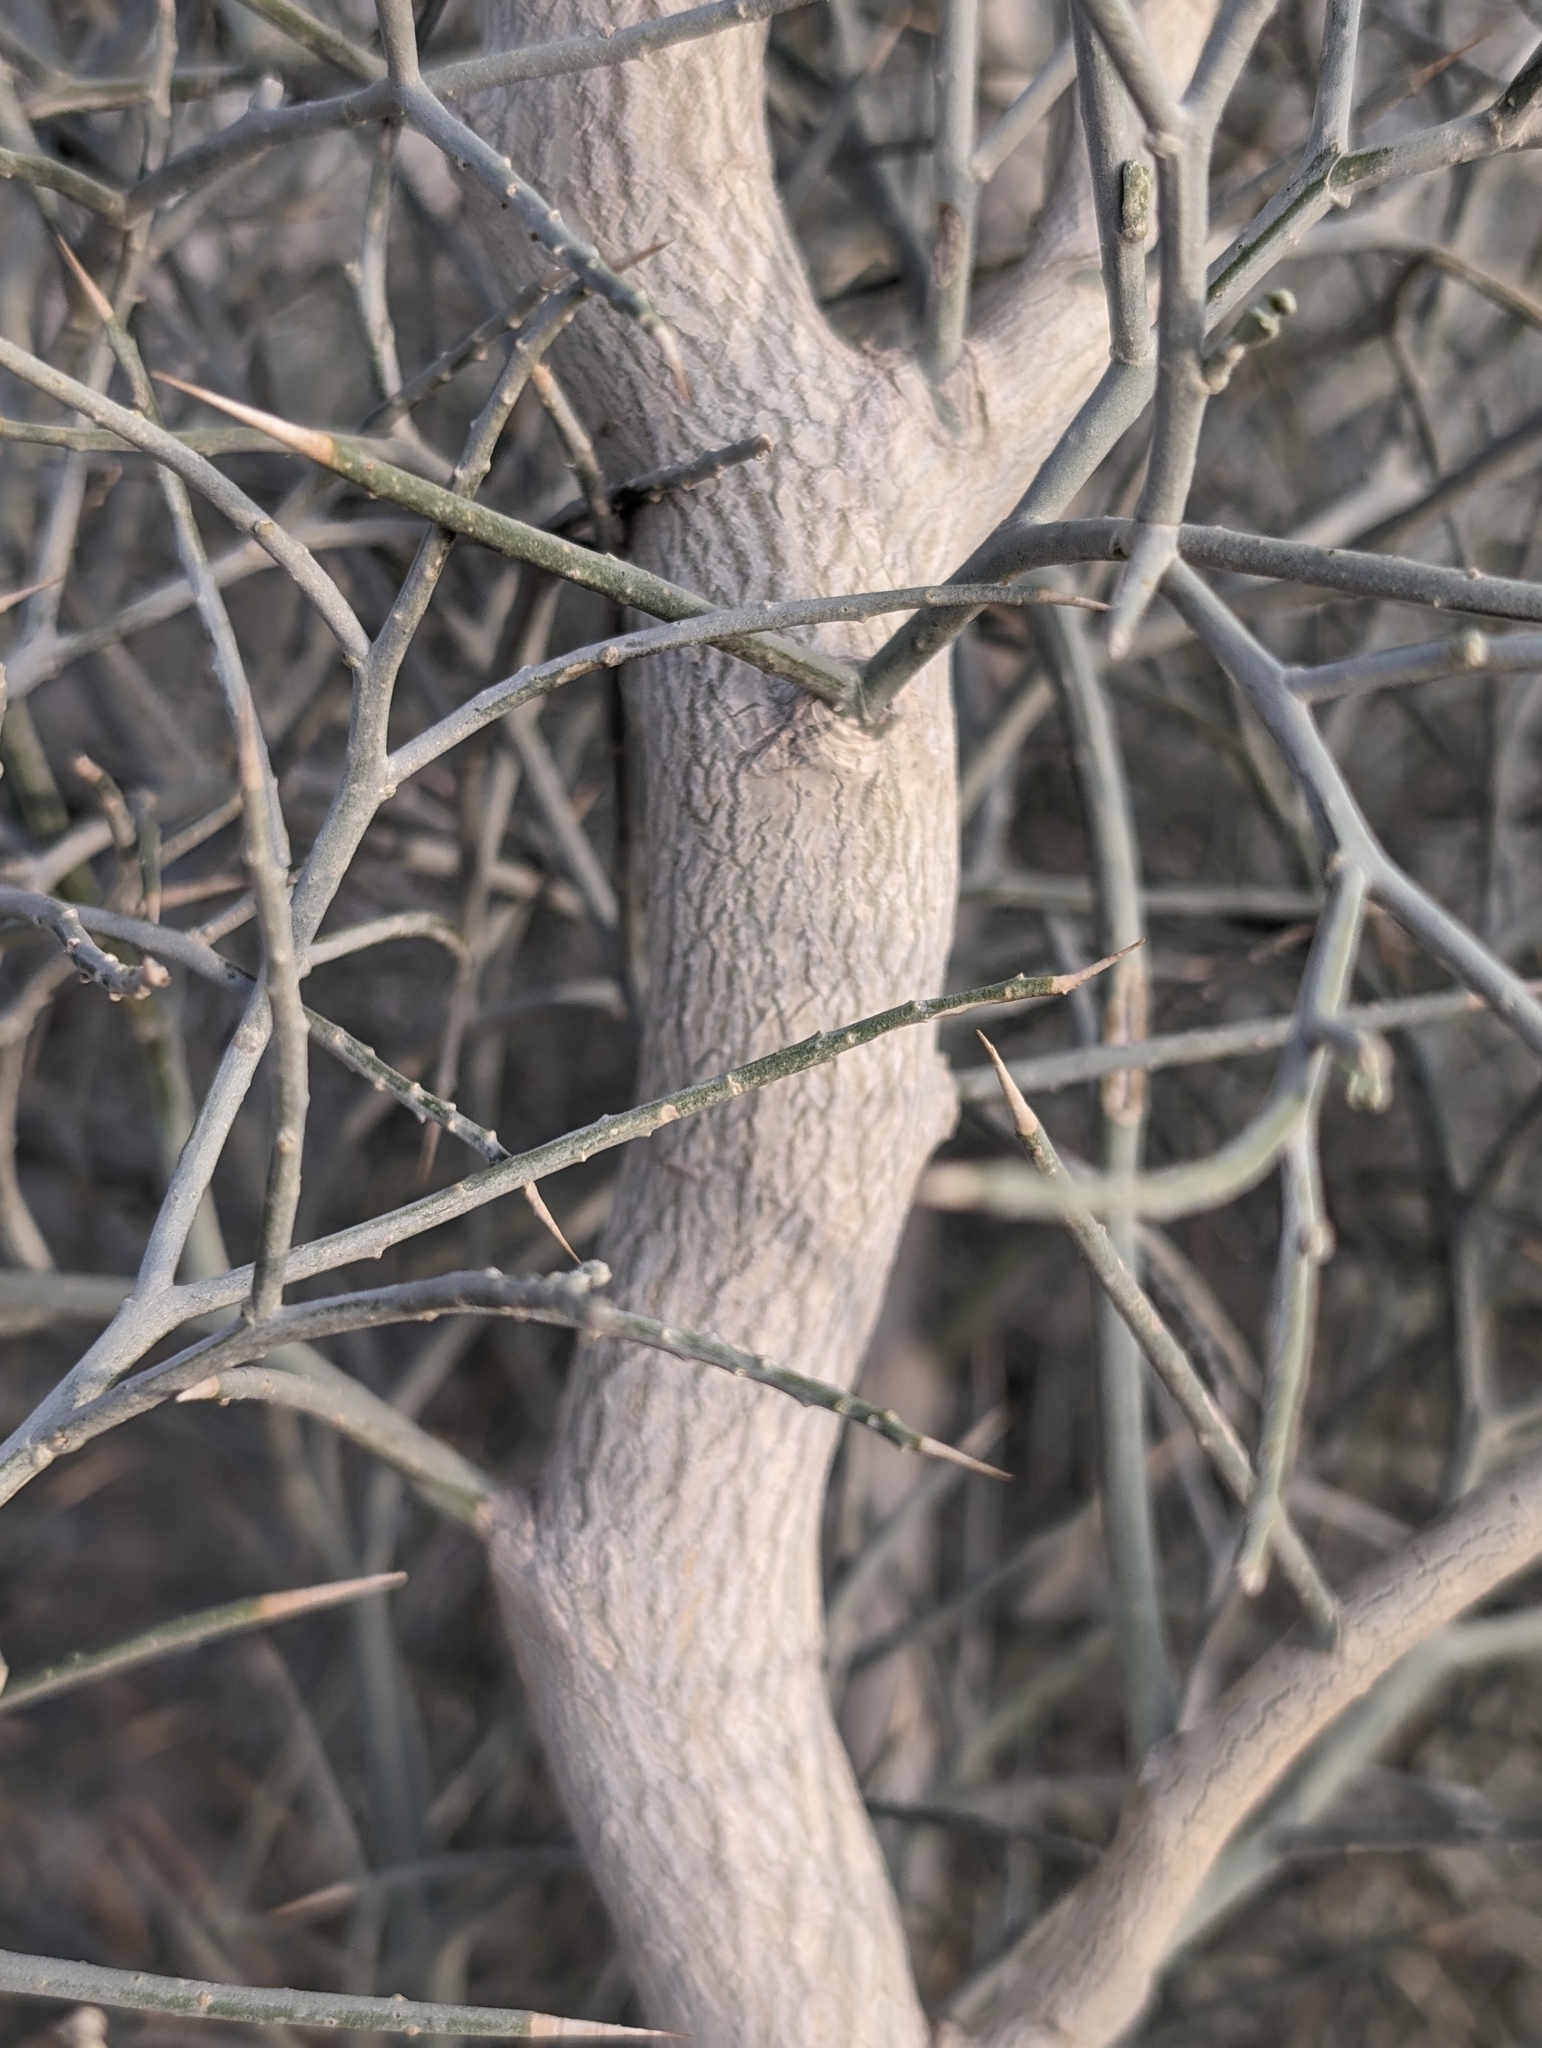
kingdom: Plantae
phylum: Tracheophyta
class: Magnoliopsida
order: Fabales
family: Fabaceae
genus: Psorothamnus
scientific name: Psorothamnus spinosus
